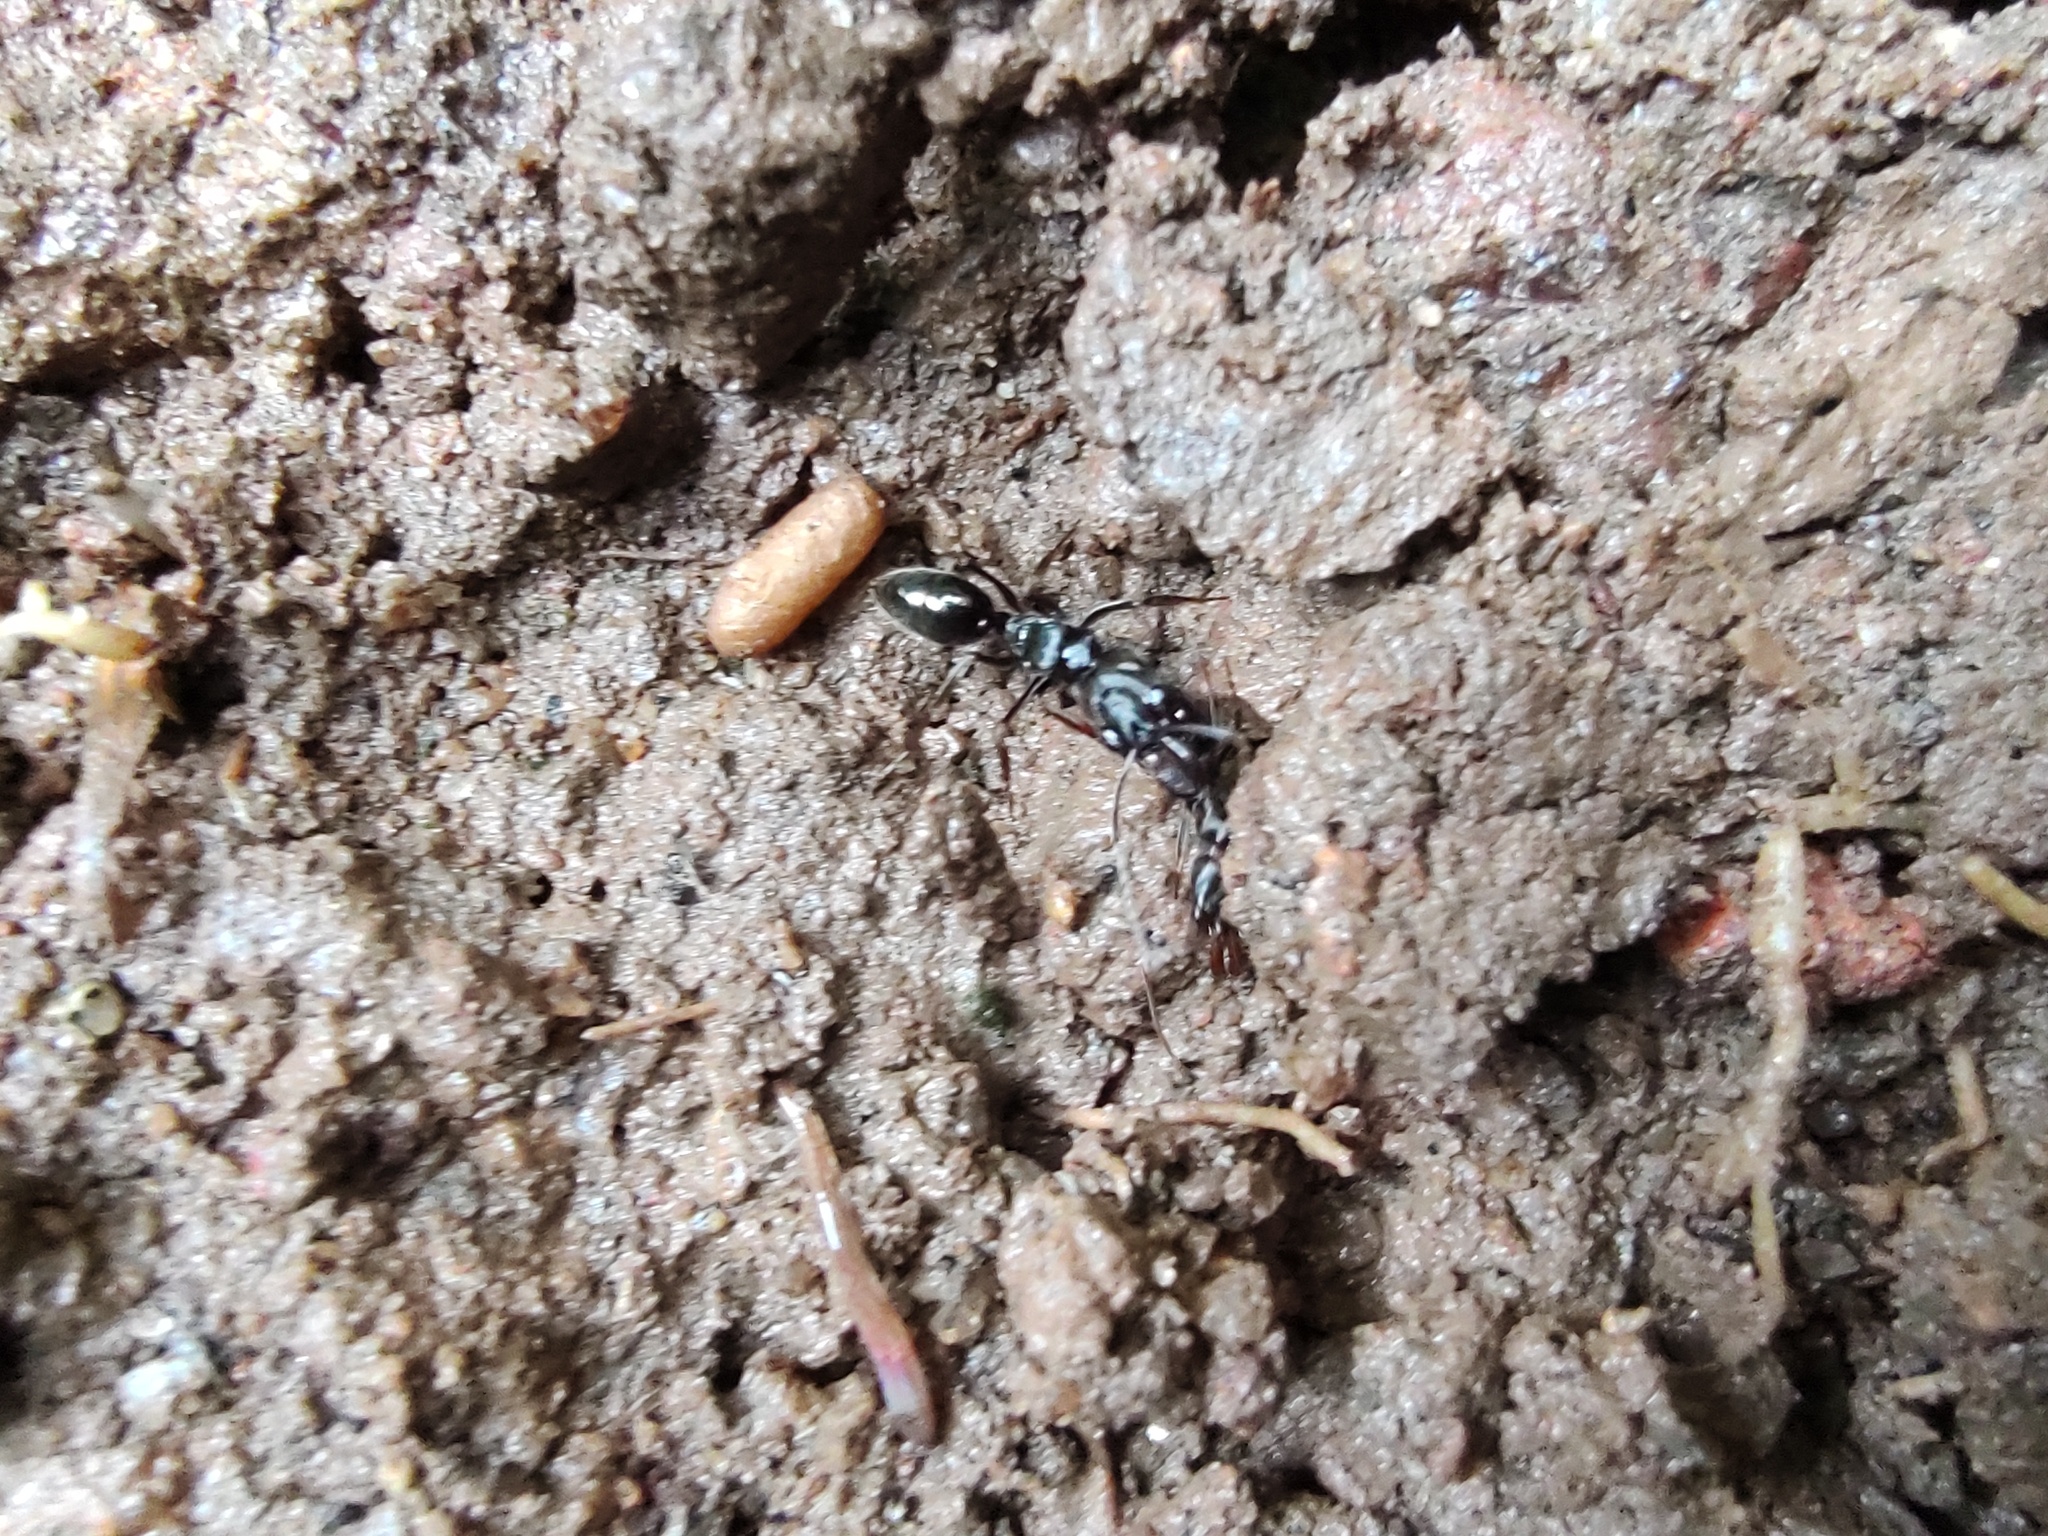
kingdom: Animalia
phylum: Arthropoda
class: Insecta
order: Hymenoptera
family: Formicidae
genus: Odontomachus
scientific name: Odontomachus simillimus
